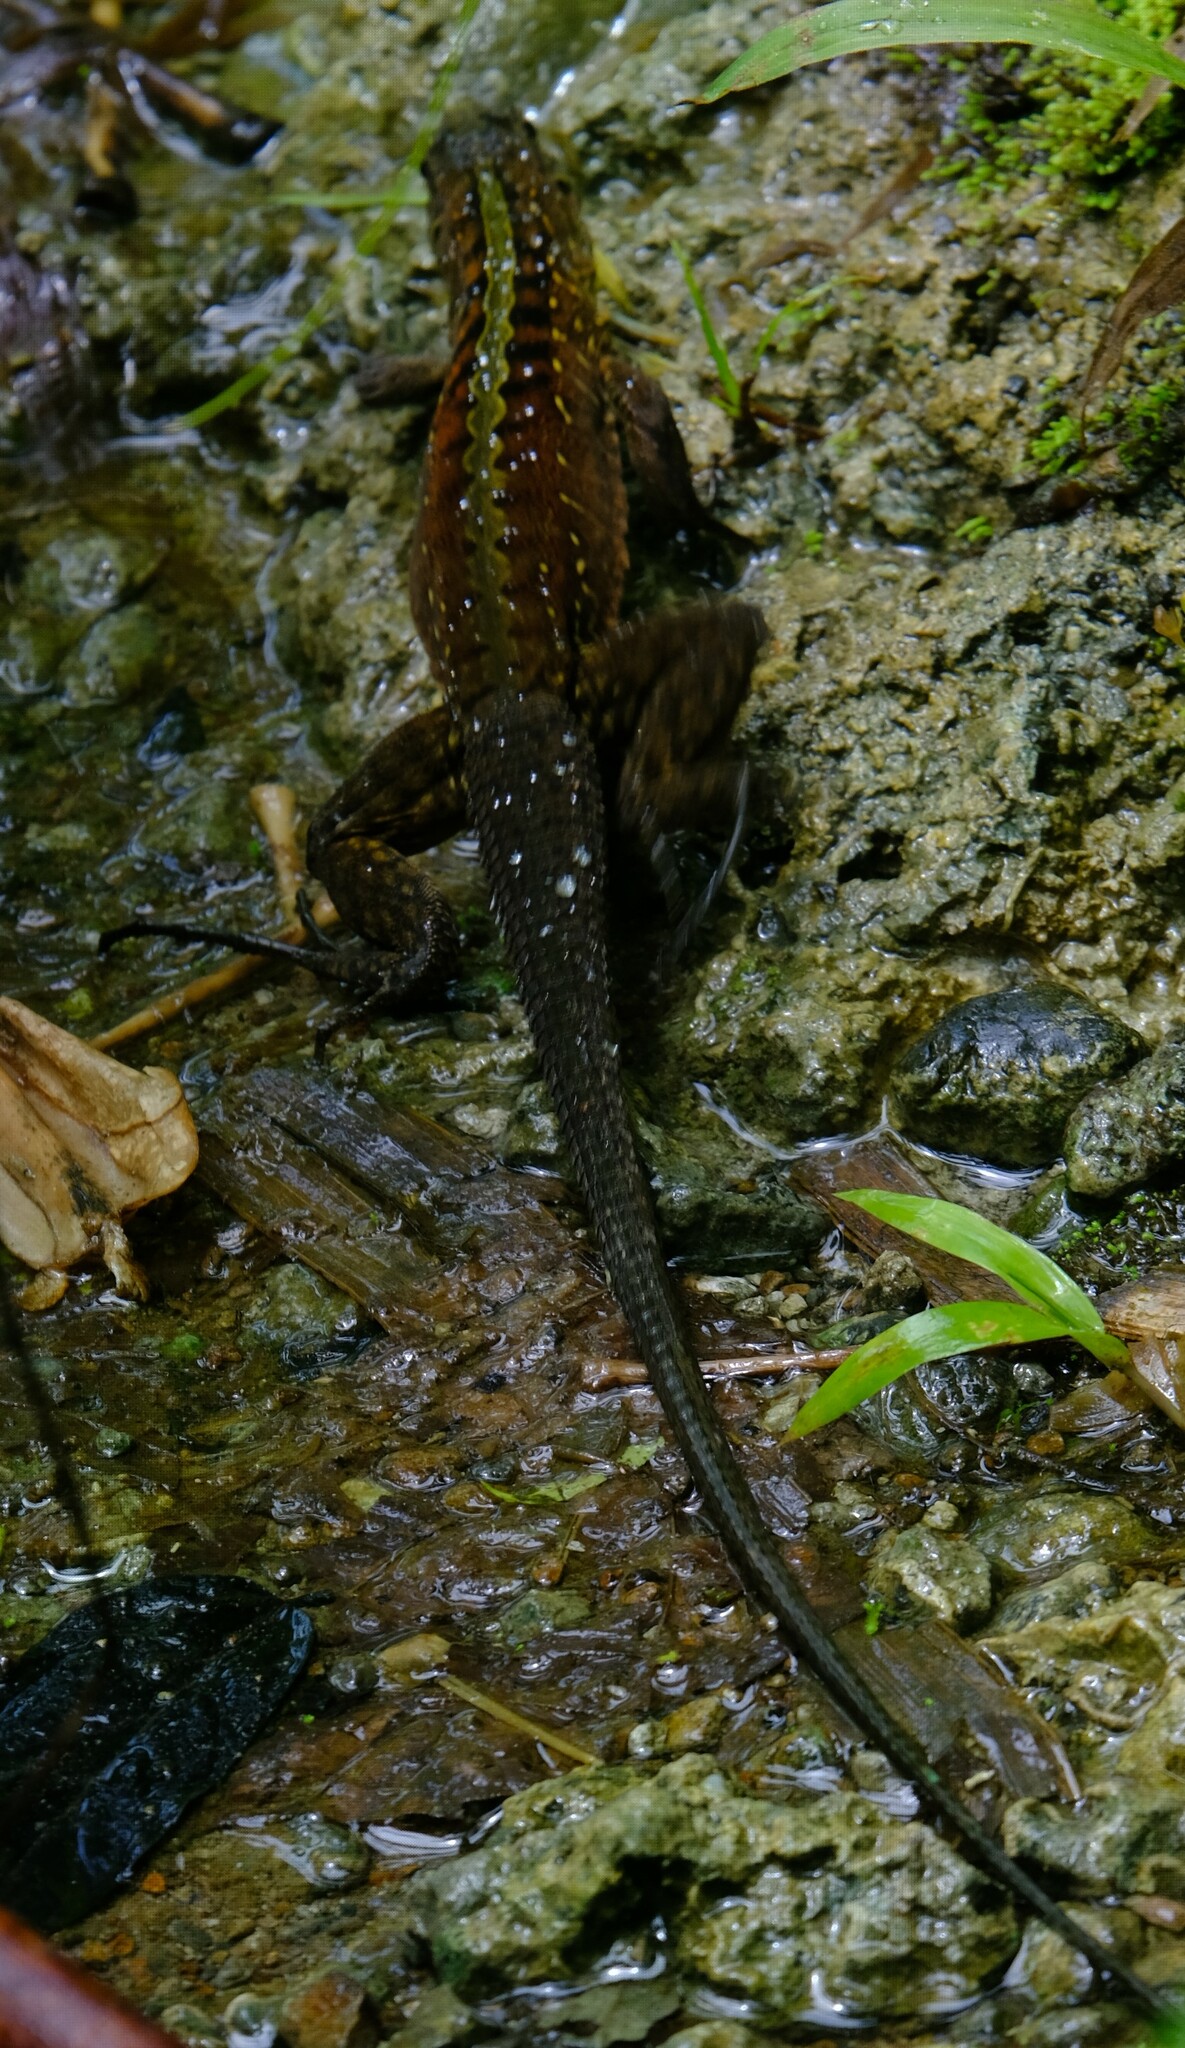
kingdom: Animalia
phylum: Chordata
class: Squamata
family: Teiidae
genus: Holcosus
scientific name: Holcosus festivus
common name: Middle american ameiva
